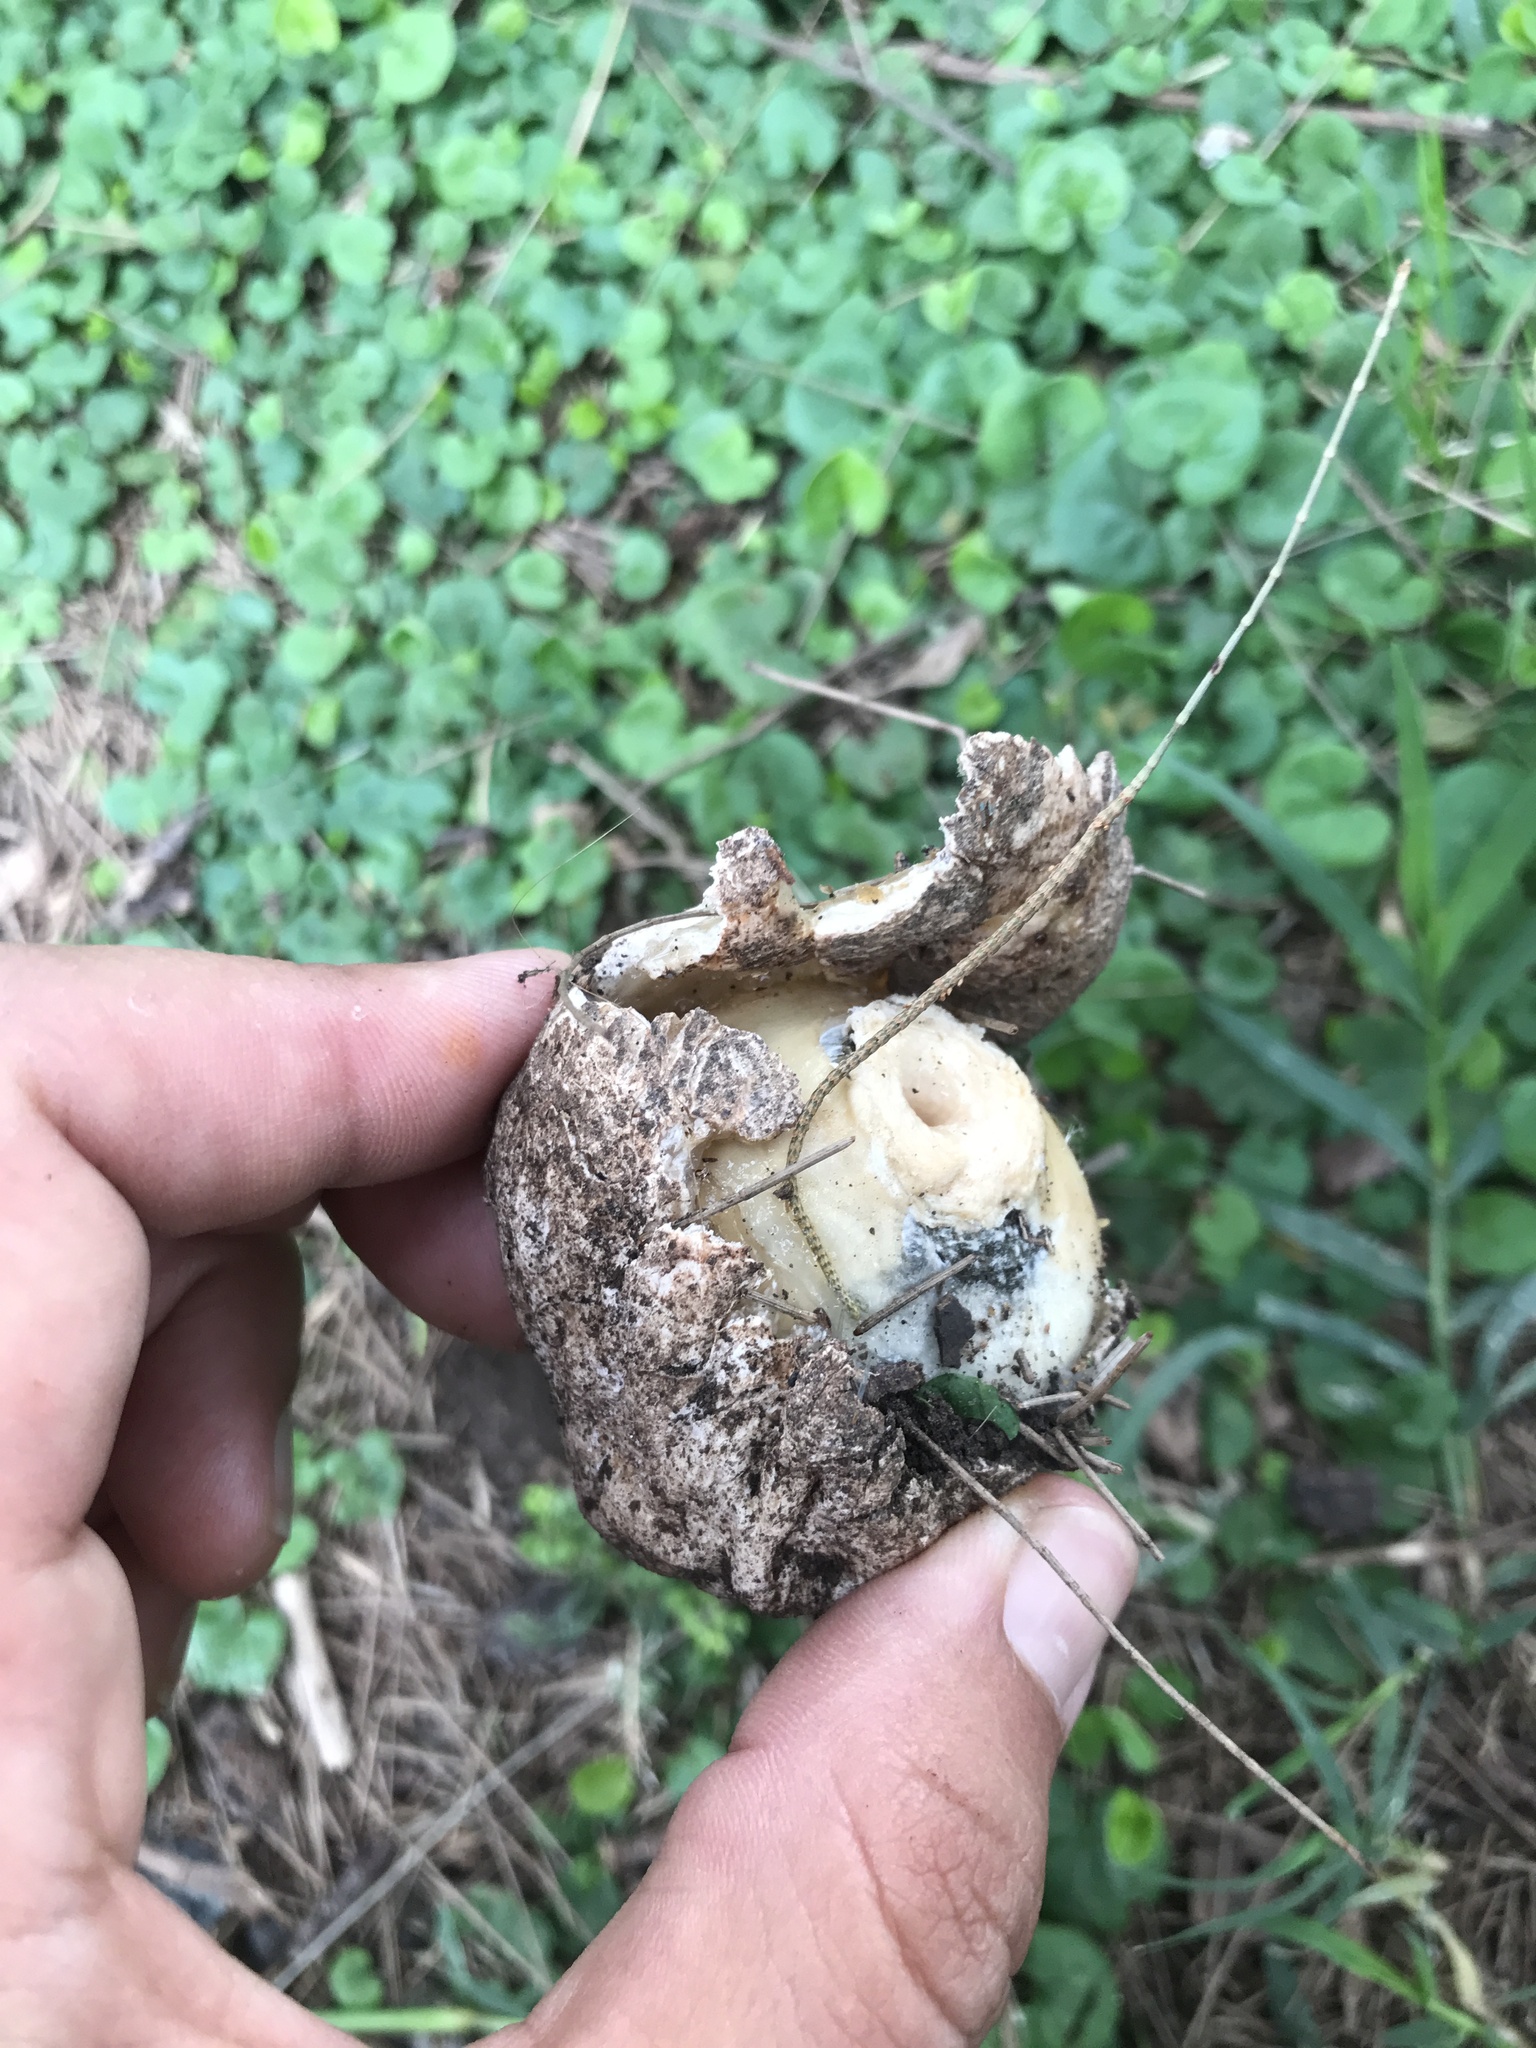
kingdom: Fungi
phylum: Basidiomycota
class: Agaricomycetes
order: Phallales
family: Phallaceae
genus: Itajahya
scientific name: Itajahya galericulata
